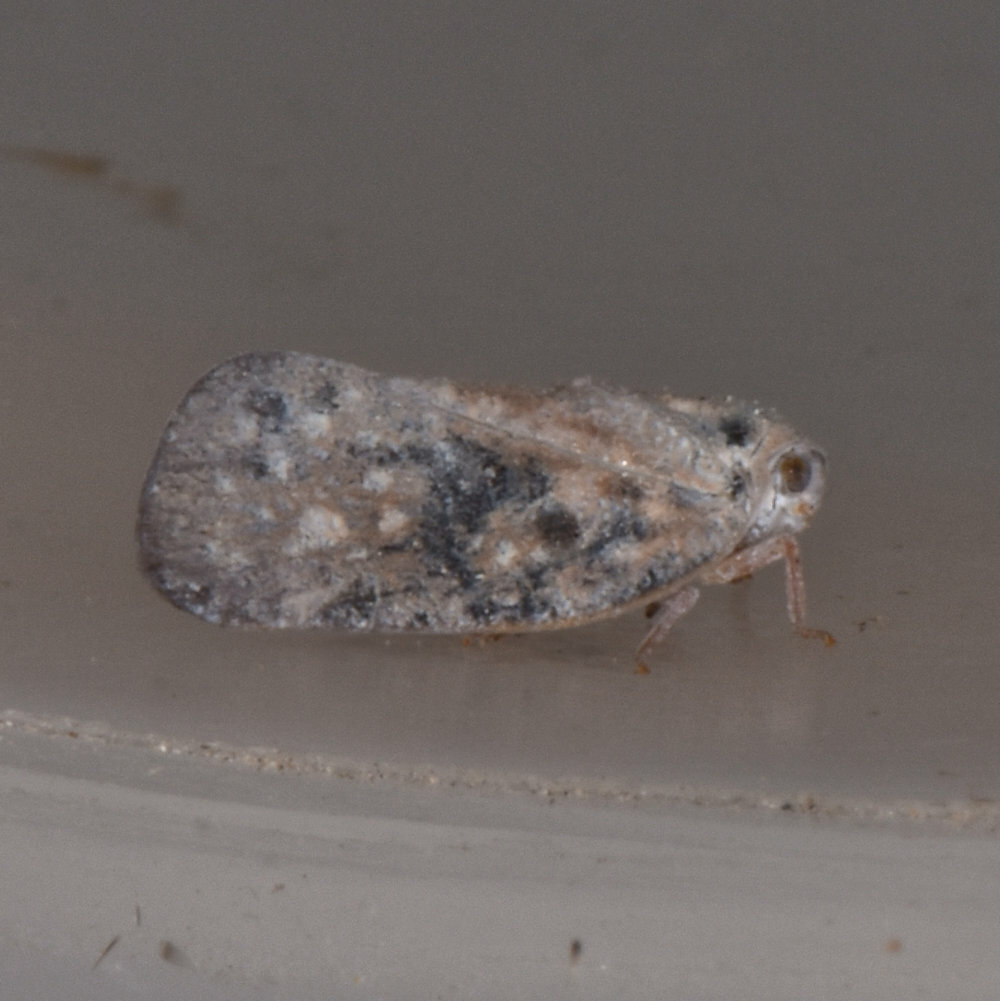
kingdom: Animalia
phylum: Arthropoda
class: Insecta
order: Hemiptera
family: Flatidae
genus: Metcalfa
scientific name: Metcalfa pruinosa
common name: Citrus flatid planthopper
